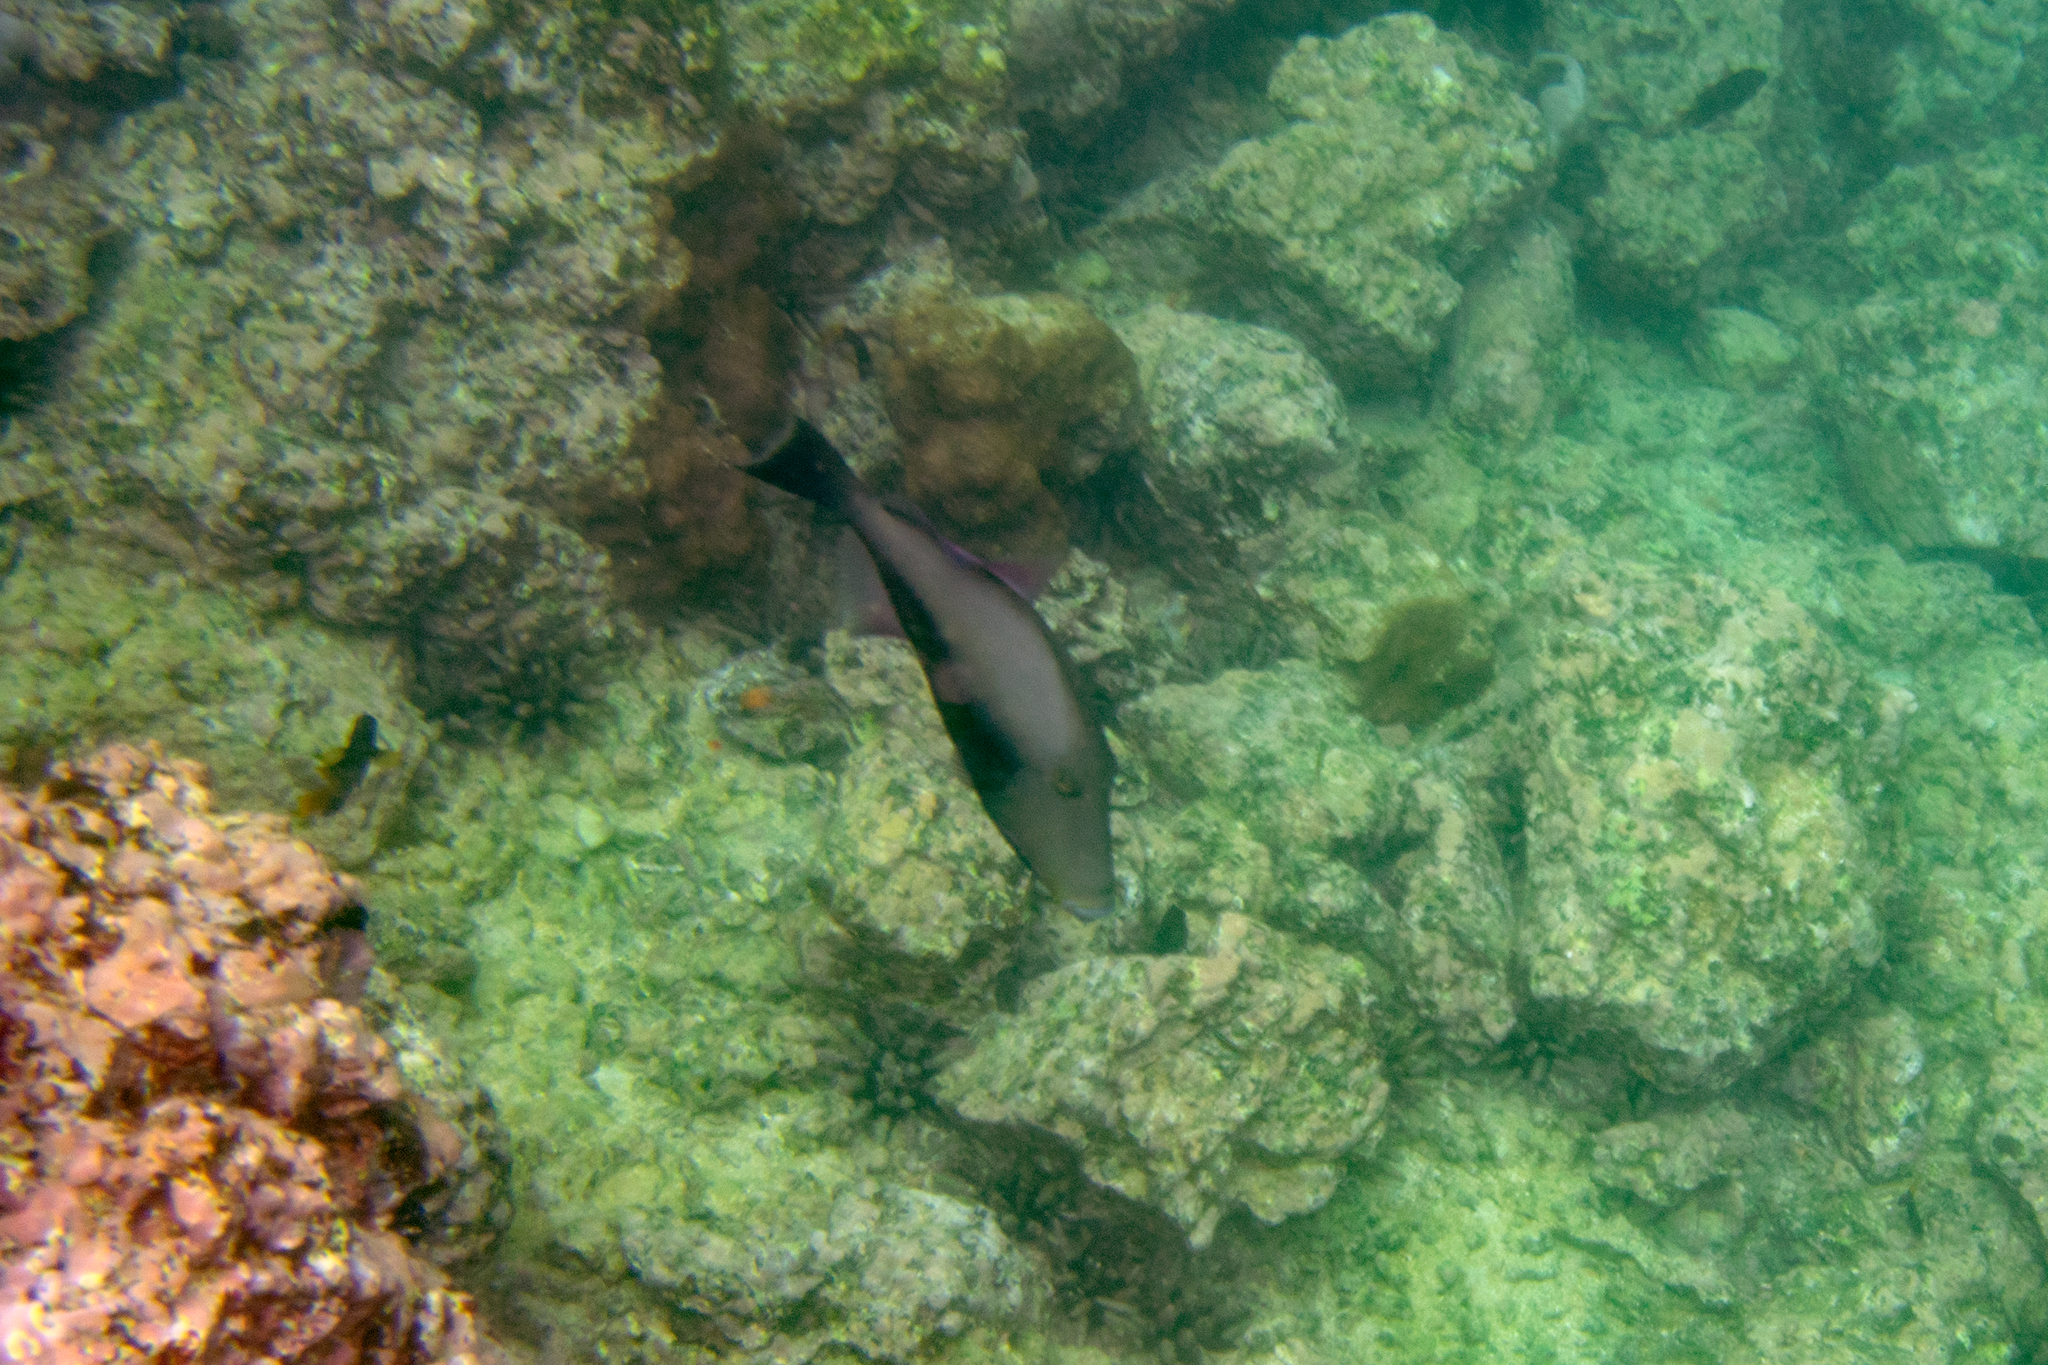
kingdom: Animalia
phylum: Chordata
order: Tetraodontiformes
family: Balistidae
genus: Sufflamen
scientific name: Sufflamen verres
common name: Orangeside triggerfish
